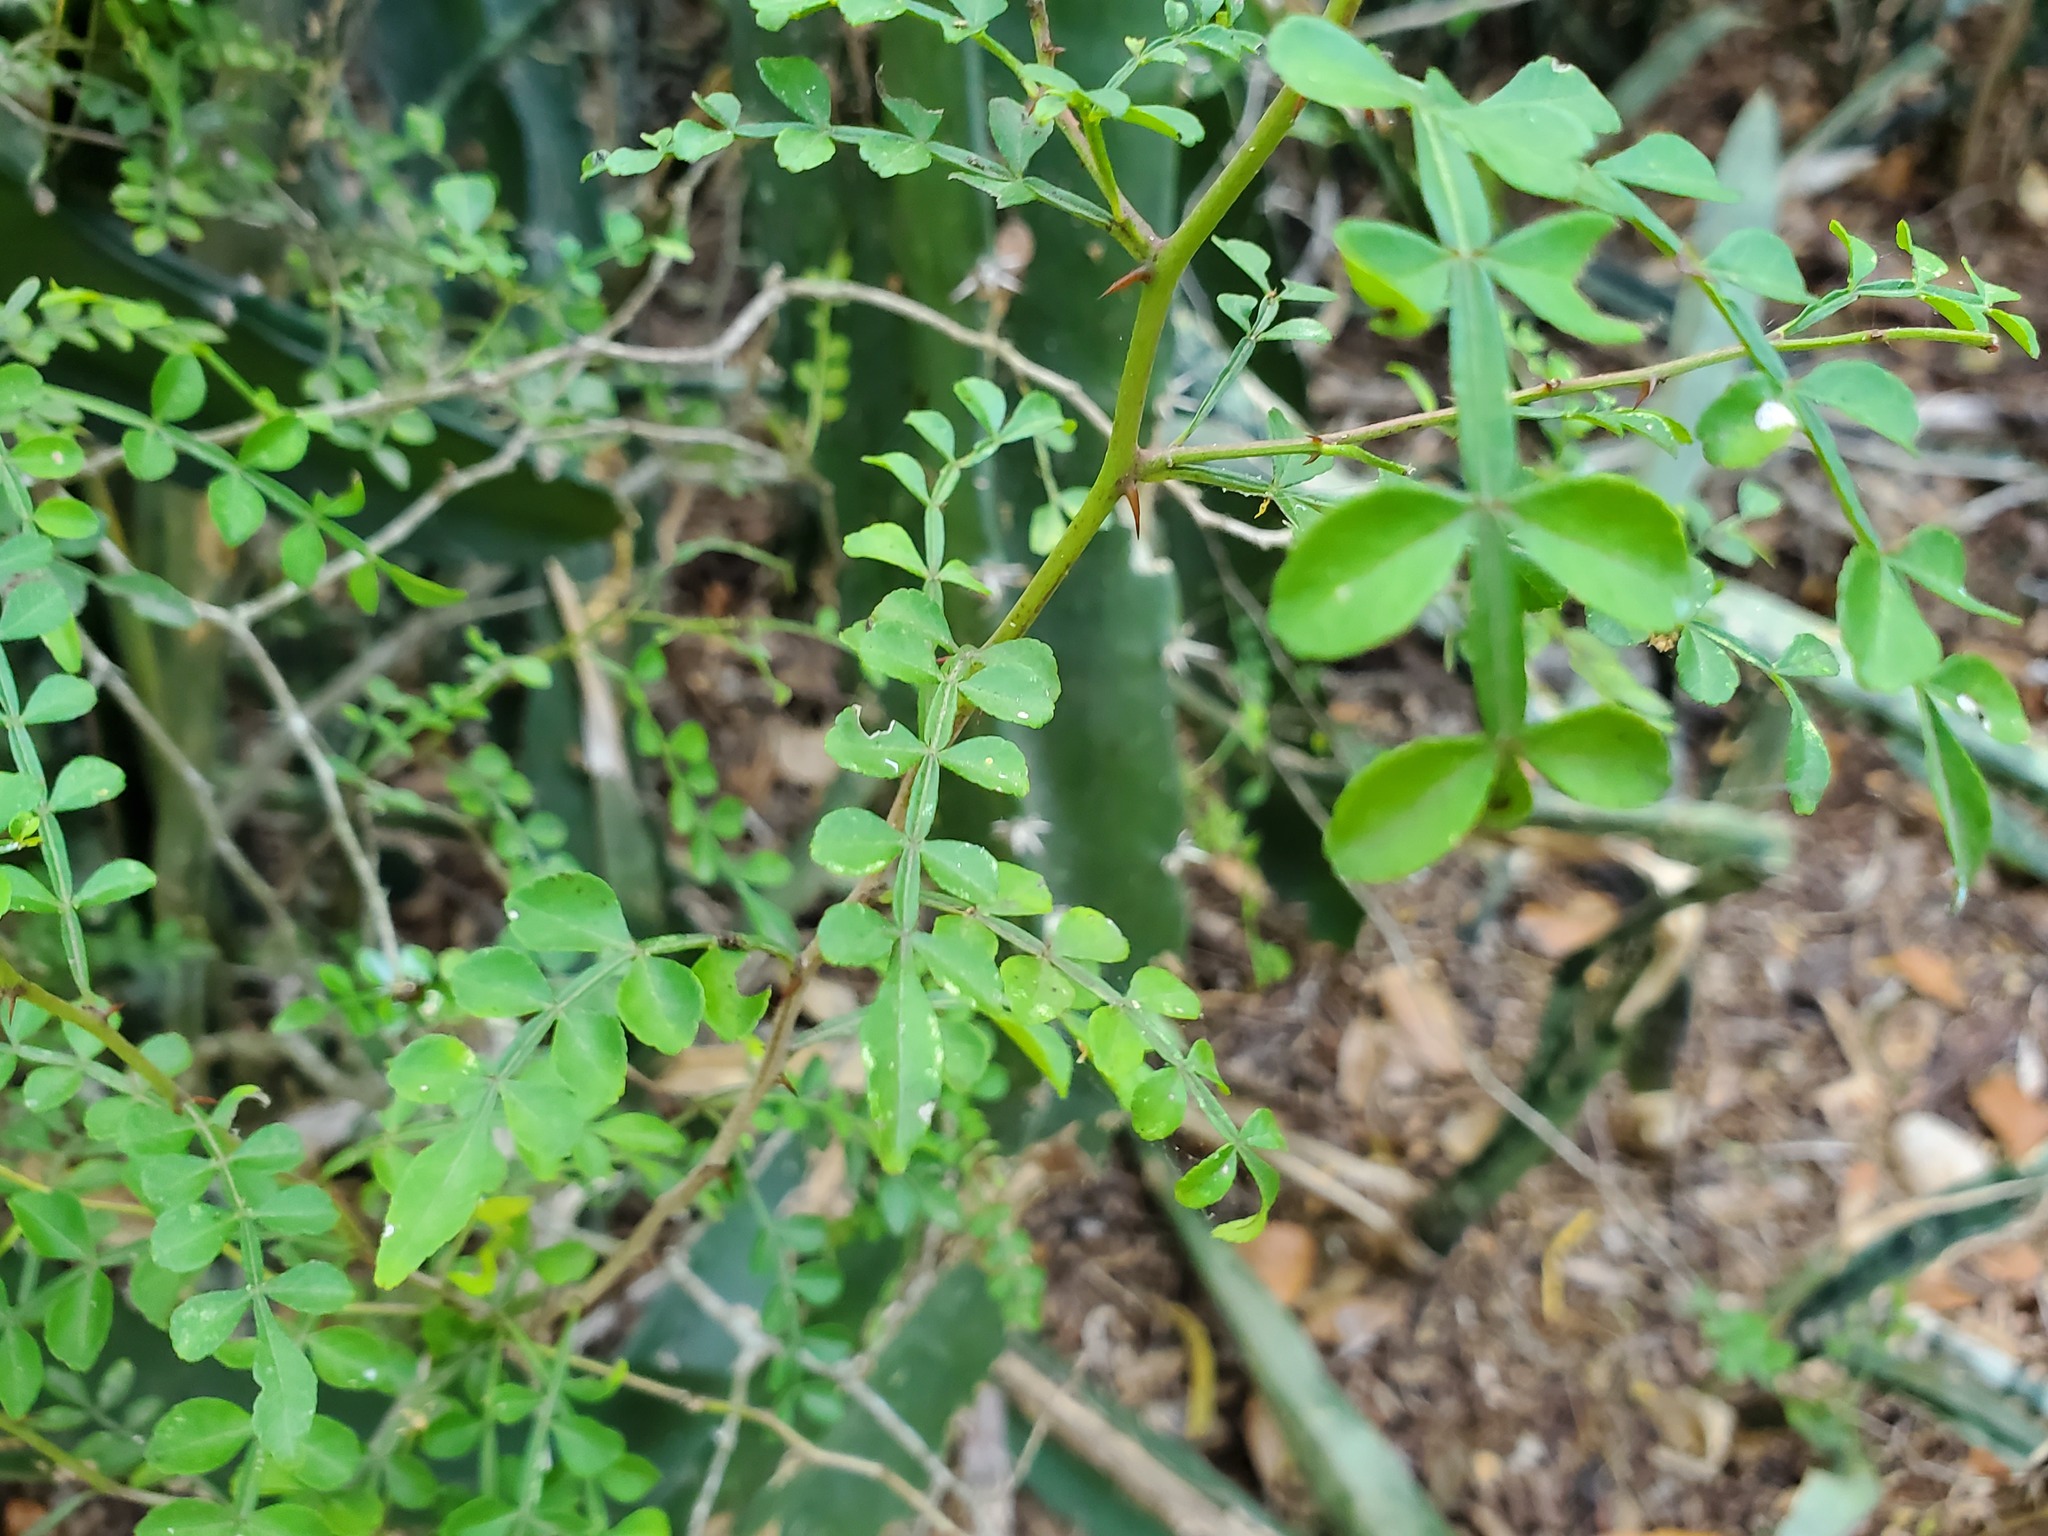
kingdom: Plantae
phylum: Tracheophyta
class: Magnoliopsida
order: Sapindales
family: Rutaceae
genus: Zanthoxylum
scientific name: Zanthoxylum fagara
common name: Lime prickly-ash
